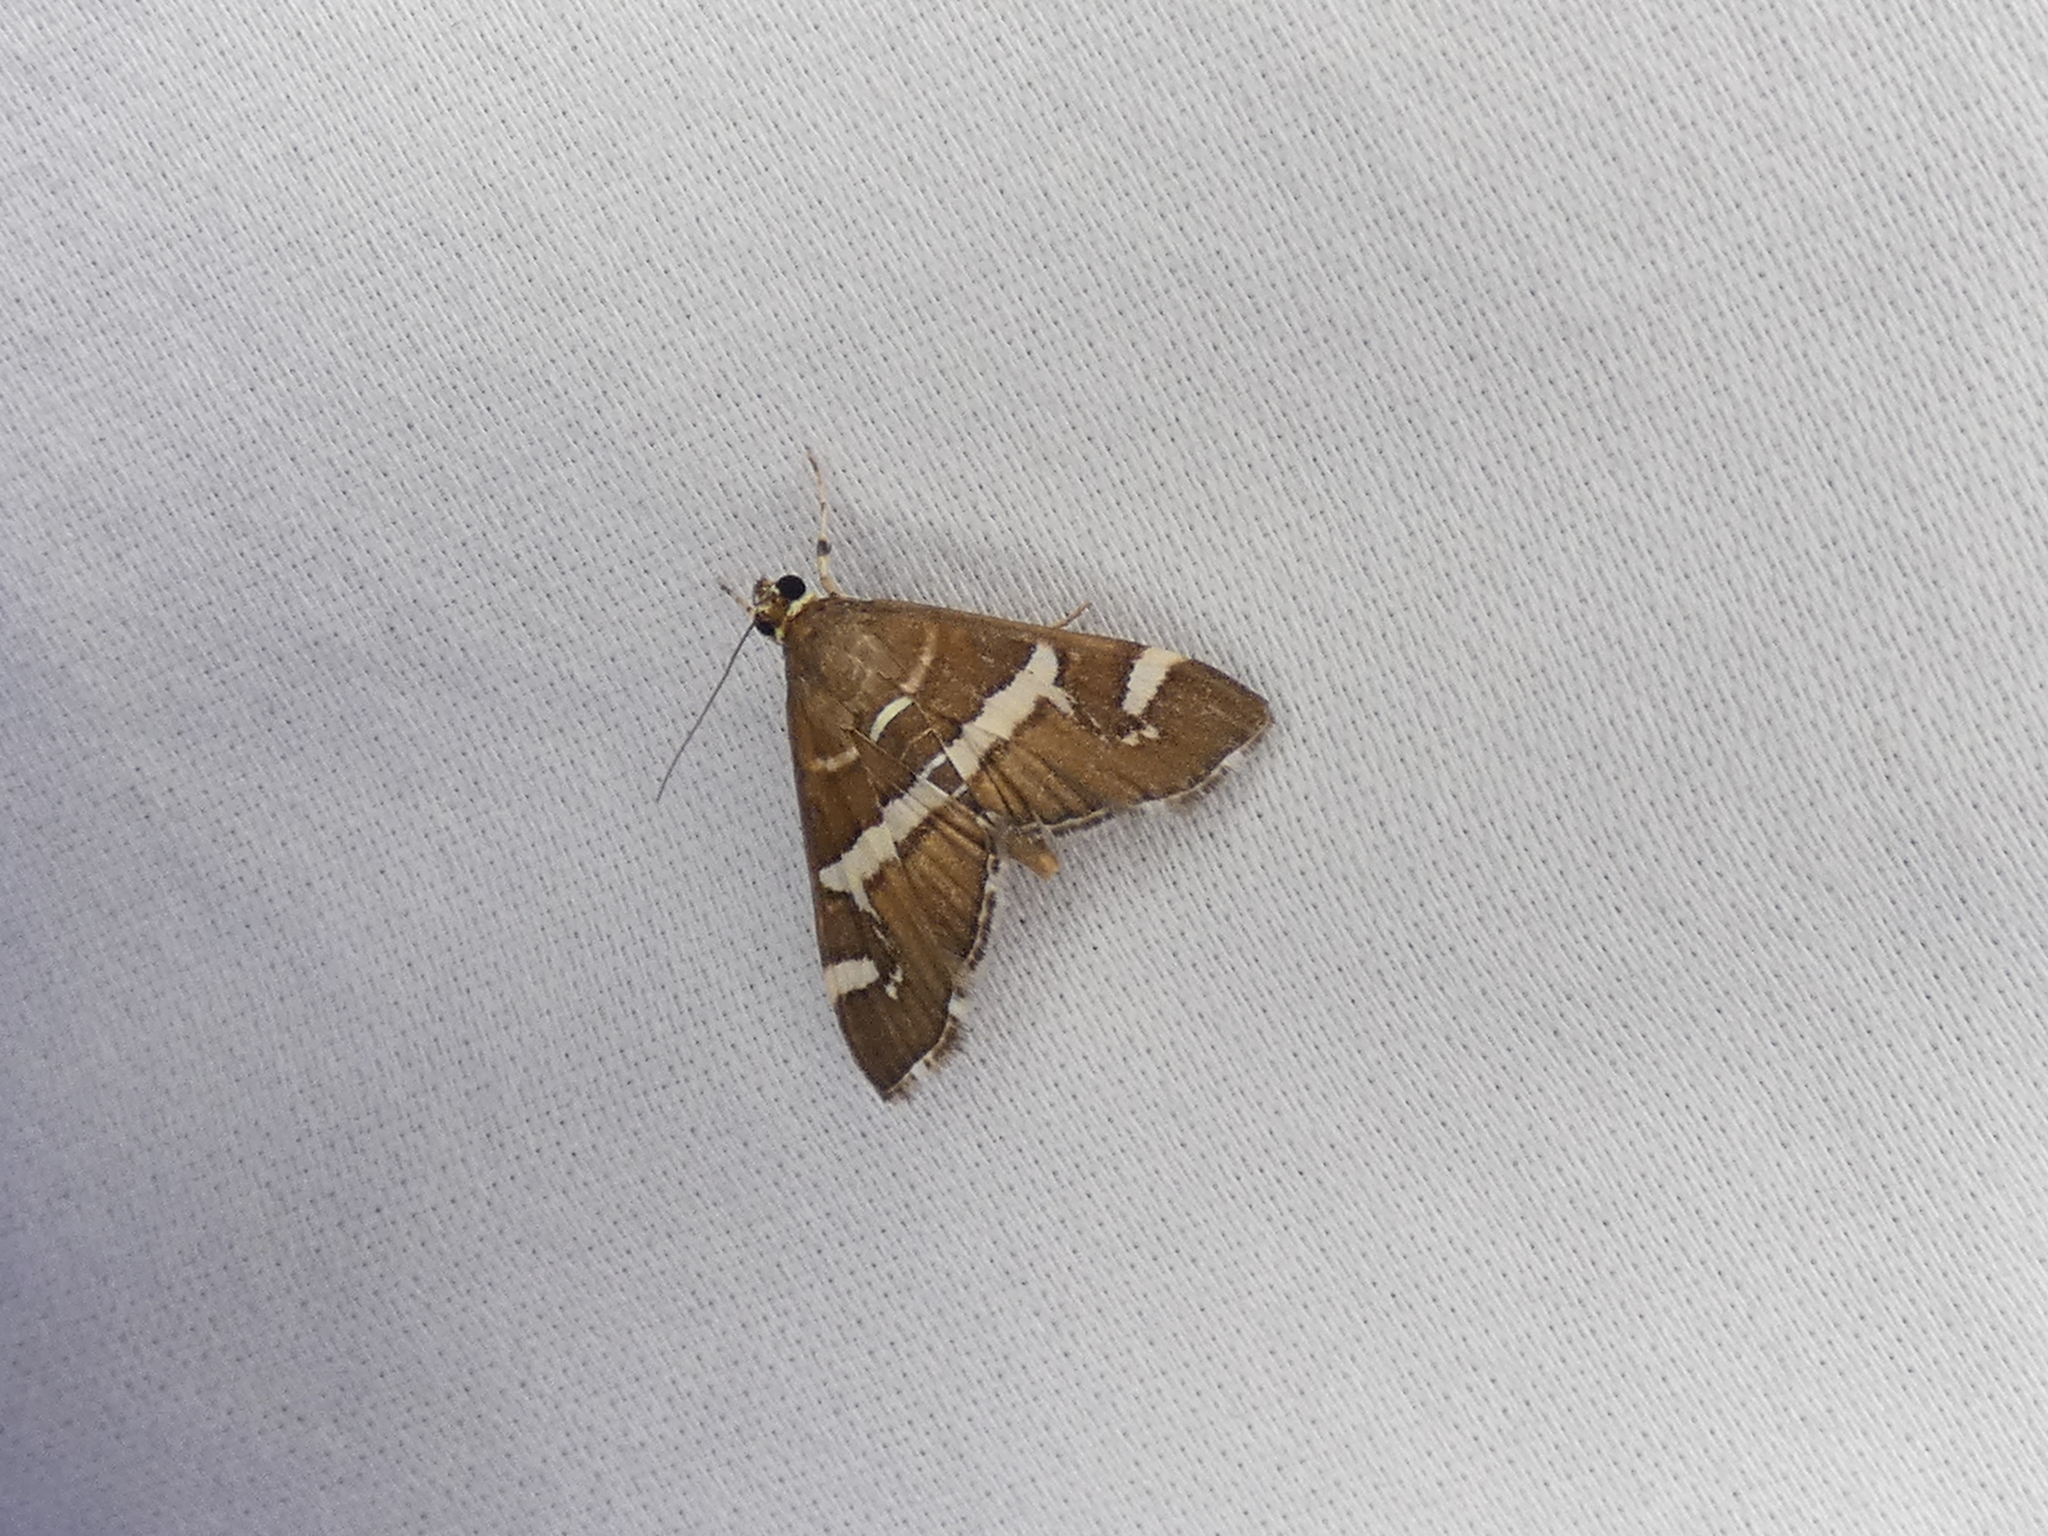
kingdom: Animalia
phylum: Arthropoda
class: Insecta
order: Lepidoptera
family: Crambidae
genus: Spoladea
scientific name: Spoladea recurvalis
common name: Beet webworm moth
